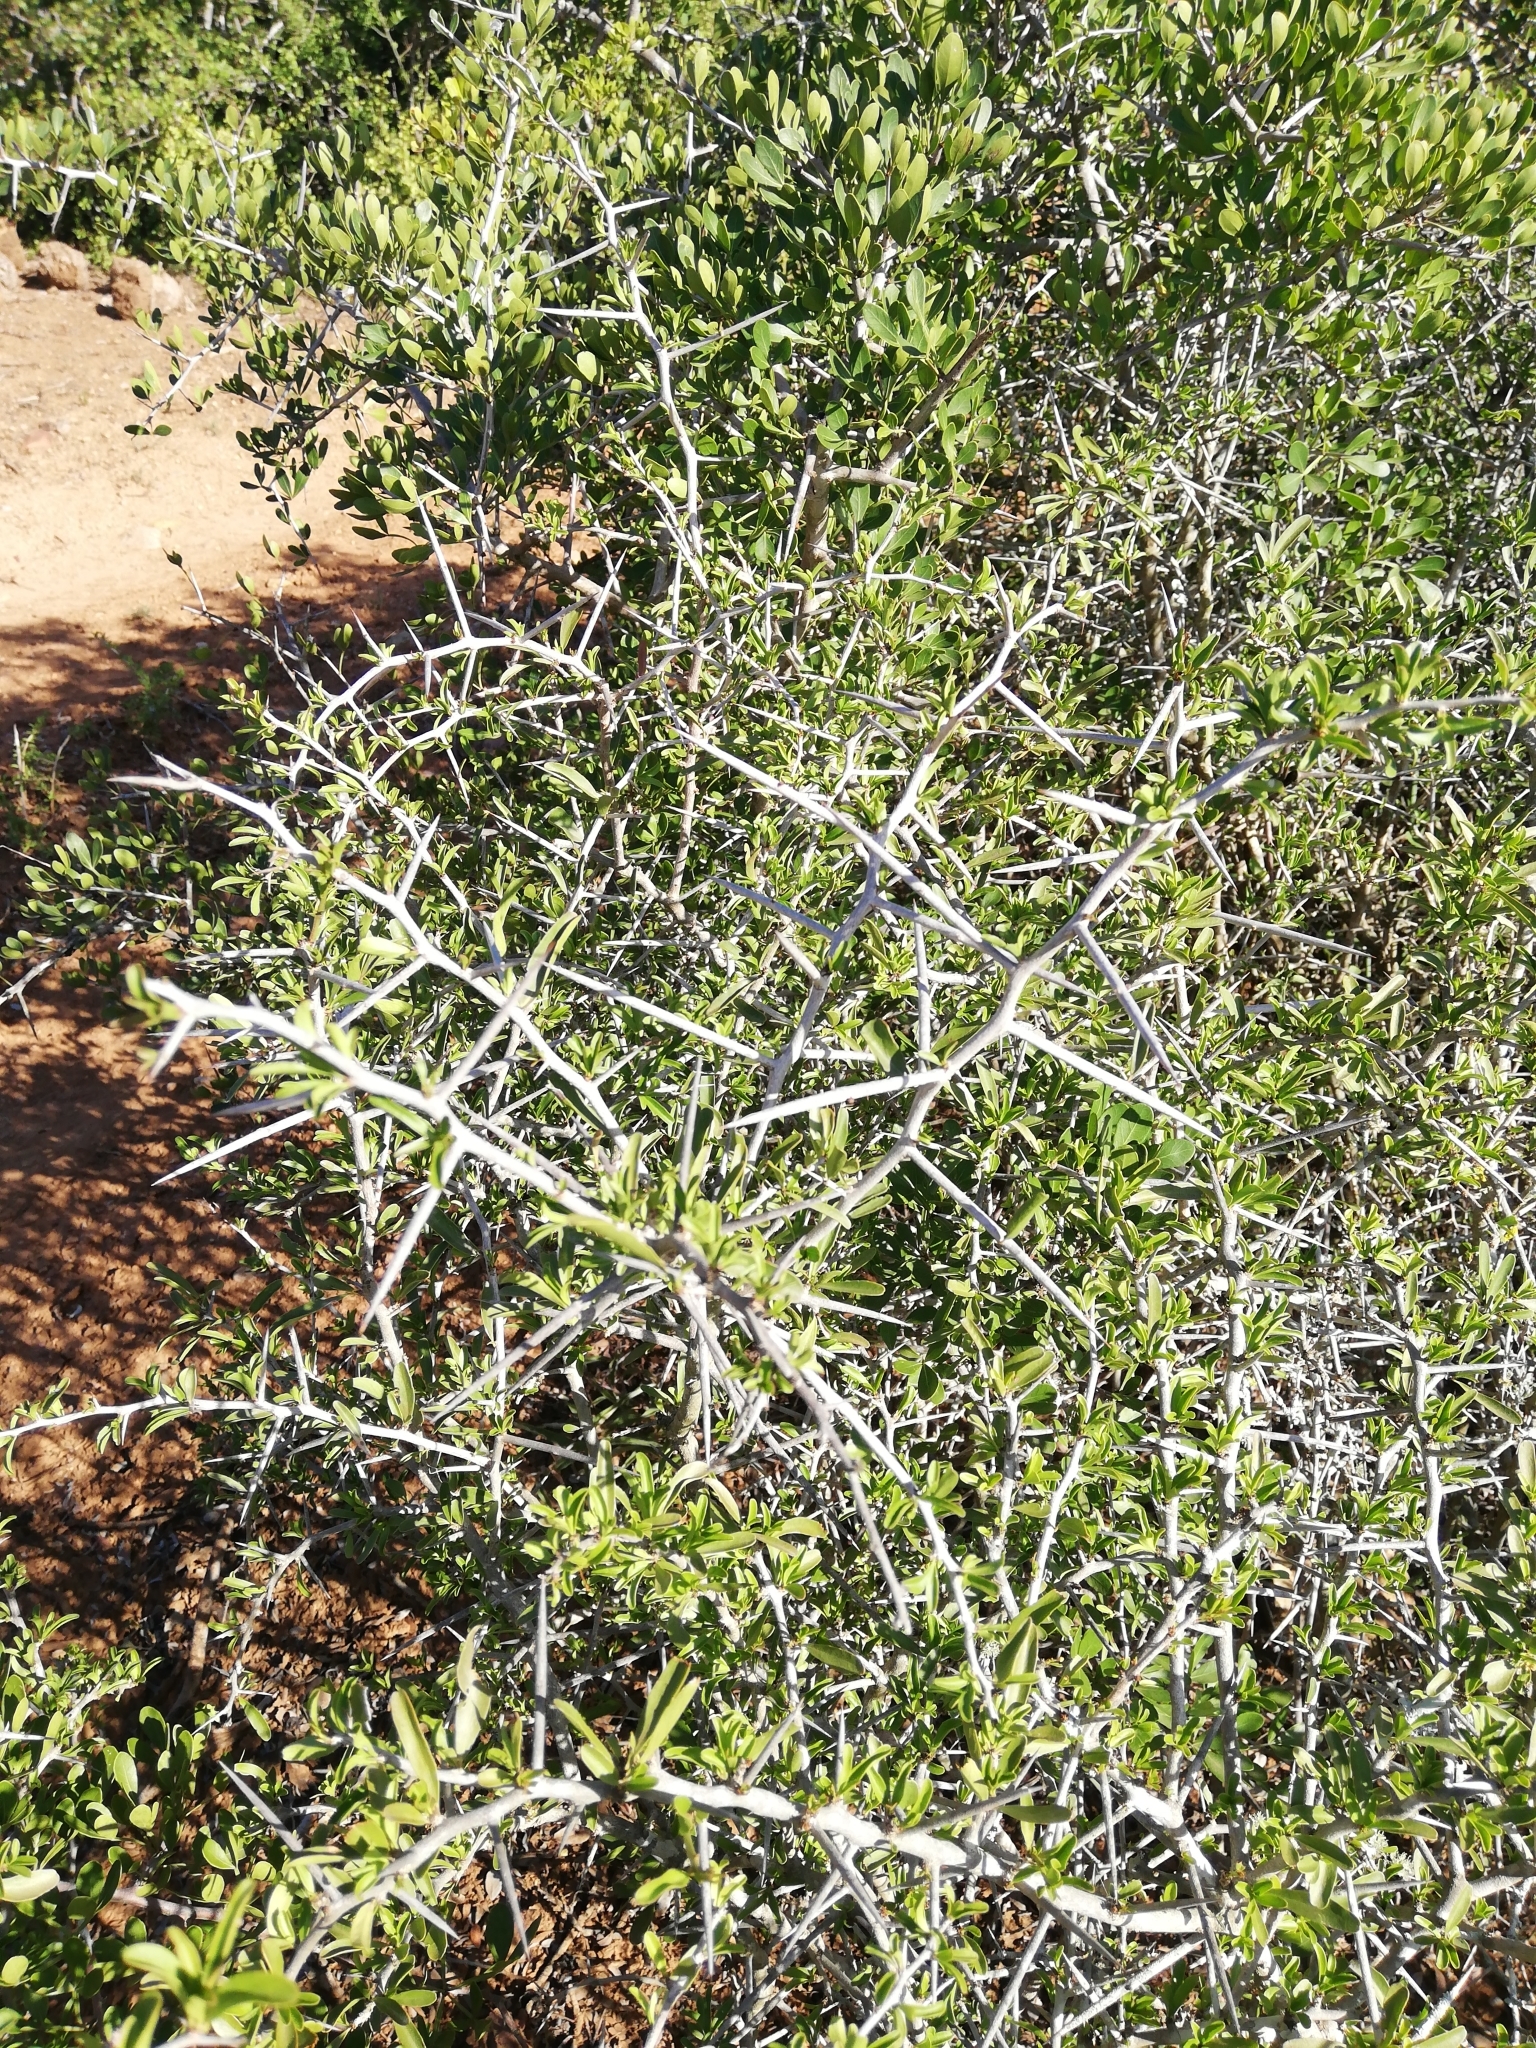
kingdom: Plantae
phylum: Tracheophyta
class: Magnoliopsida
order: Celastrales
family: Celastraceae
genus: Gymnosporia
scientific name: Gymnosporia polyacantha
